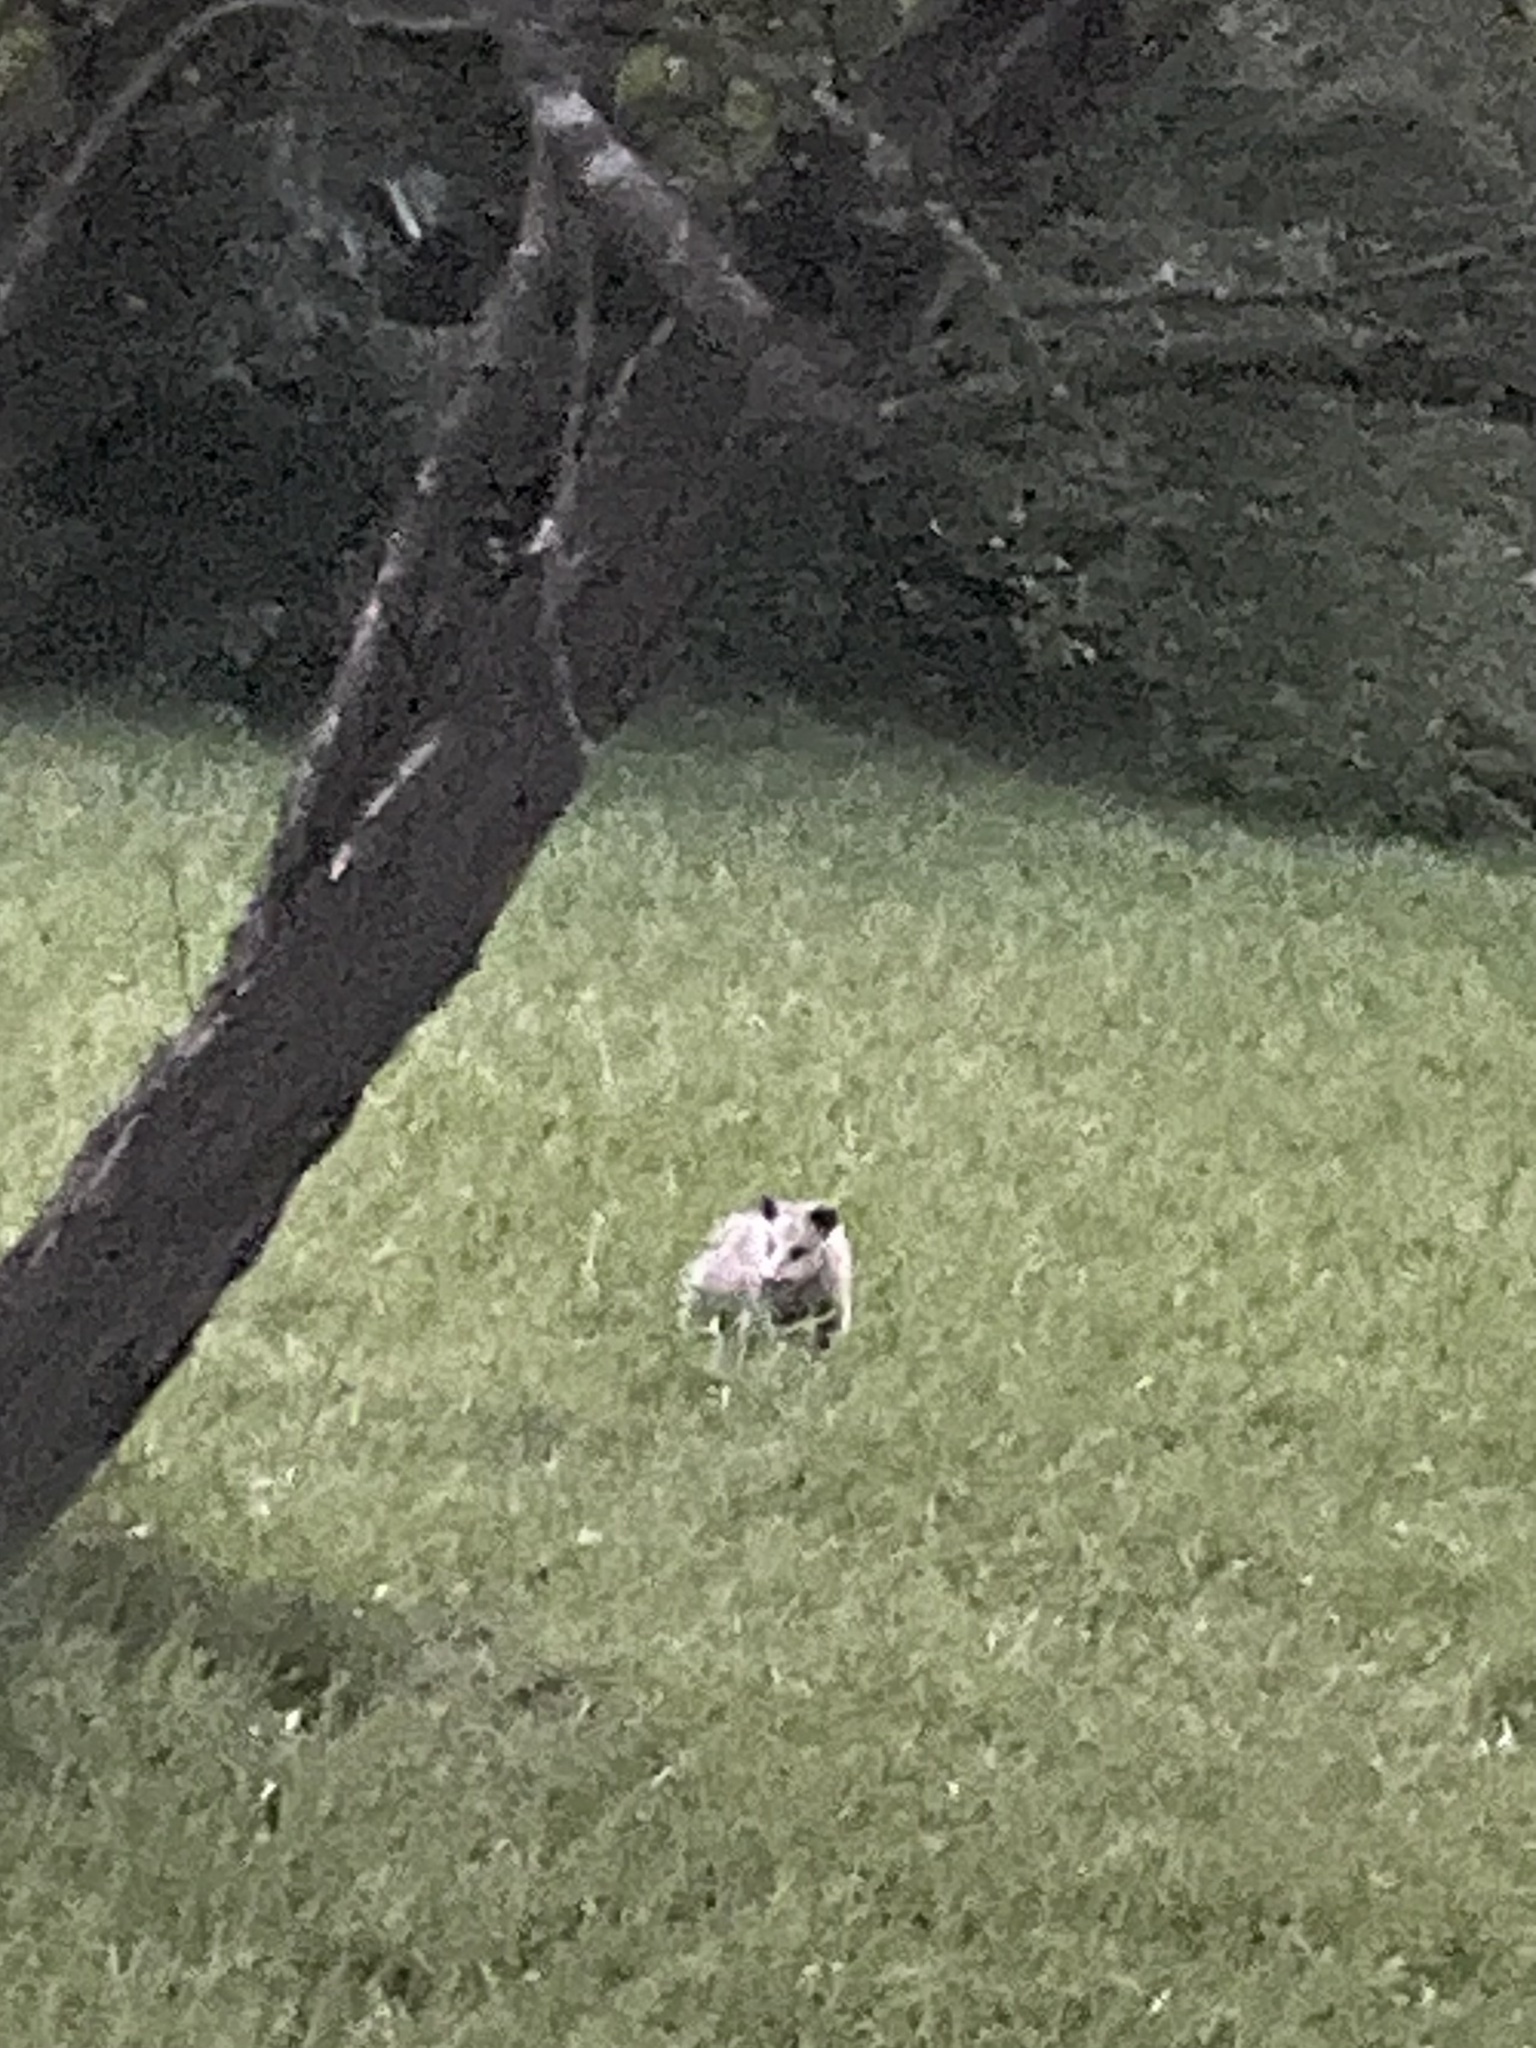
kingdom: Animalia
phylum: Chordata
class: Mammalia
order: Didelphimorphia
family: Didelphidae
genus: Didelphis
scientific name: Didelphis virginiana
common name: Virginia opossum
